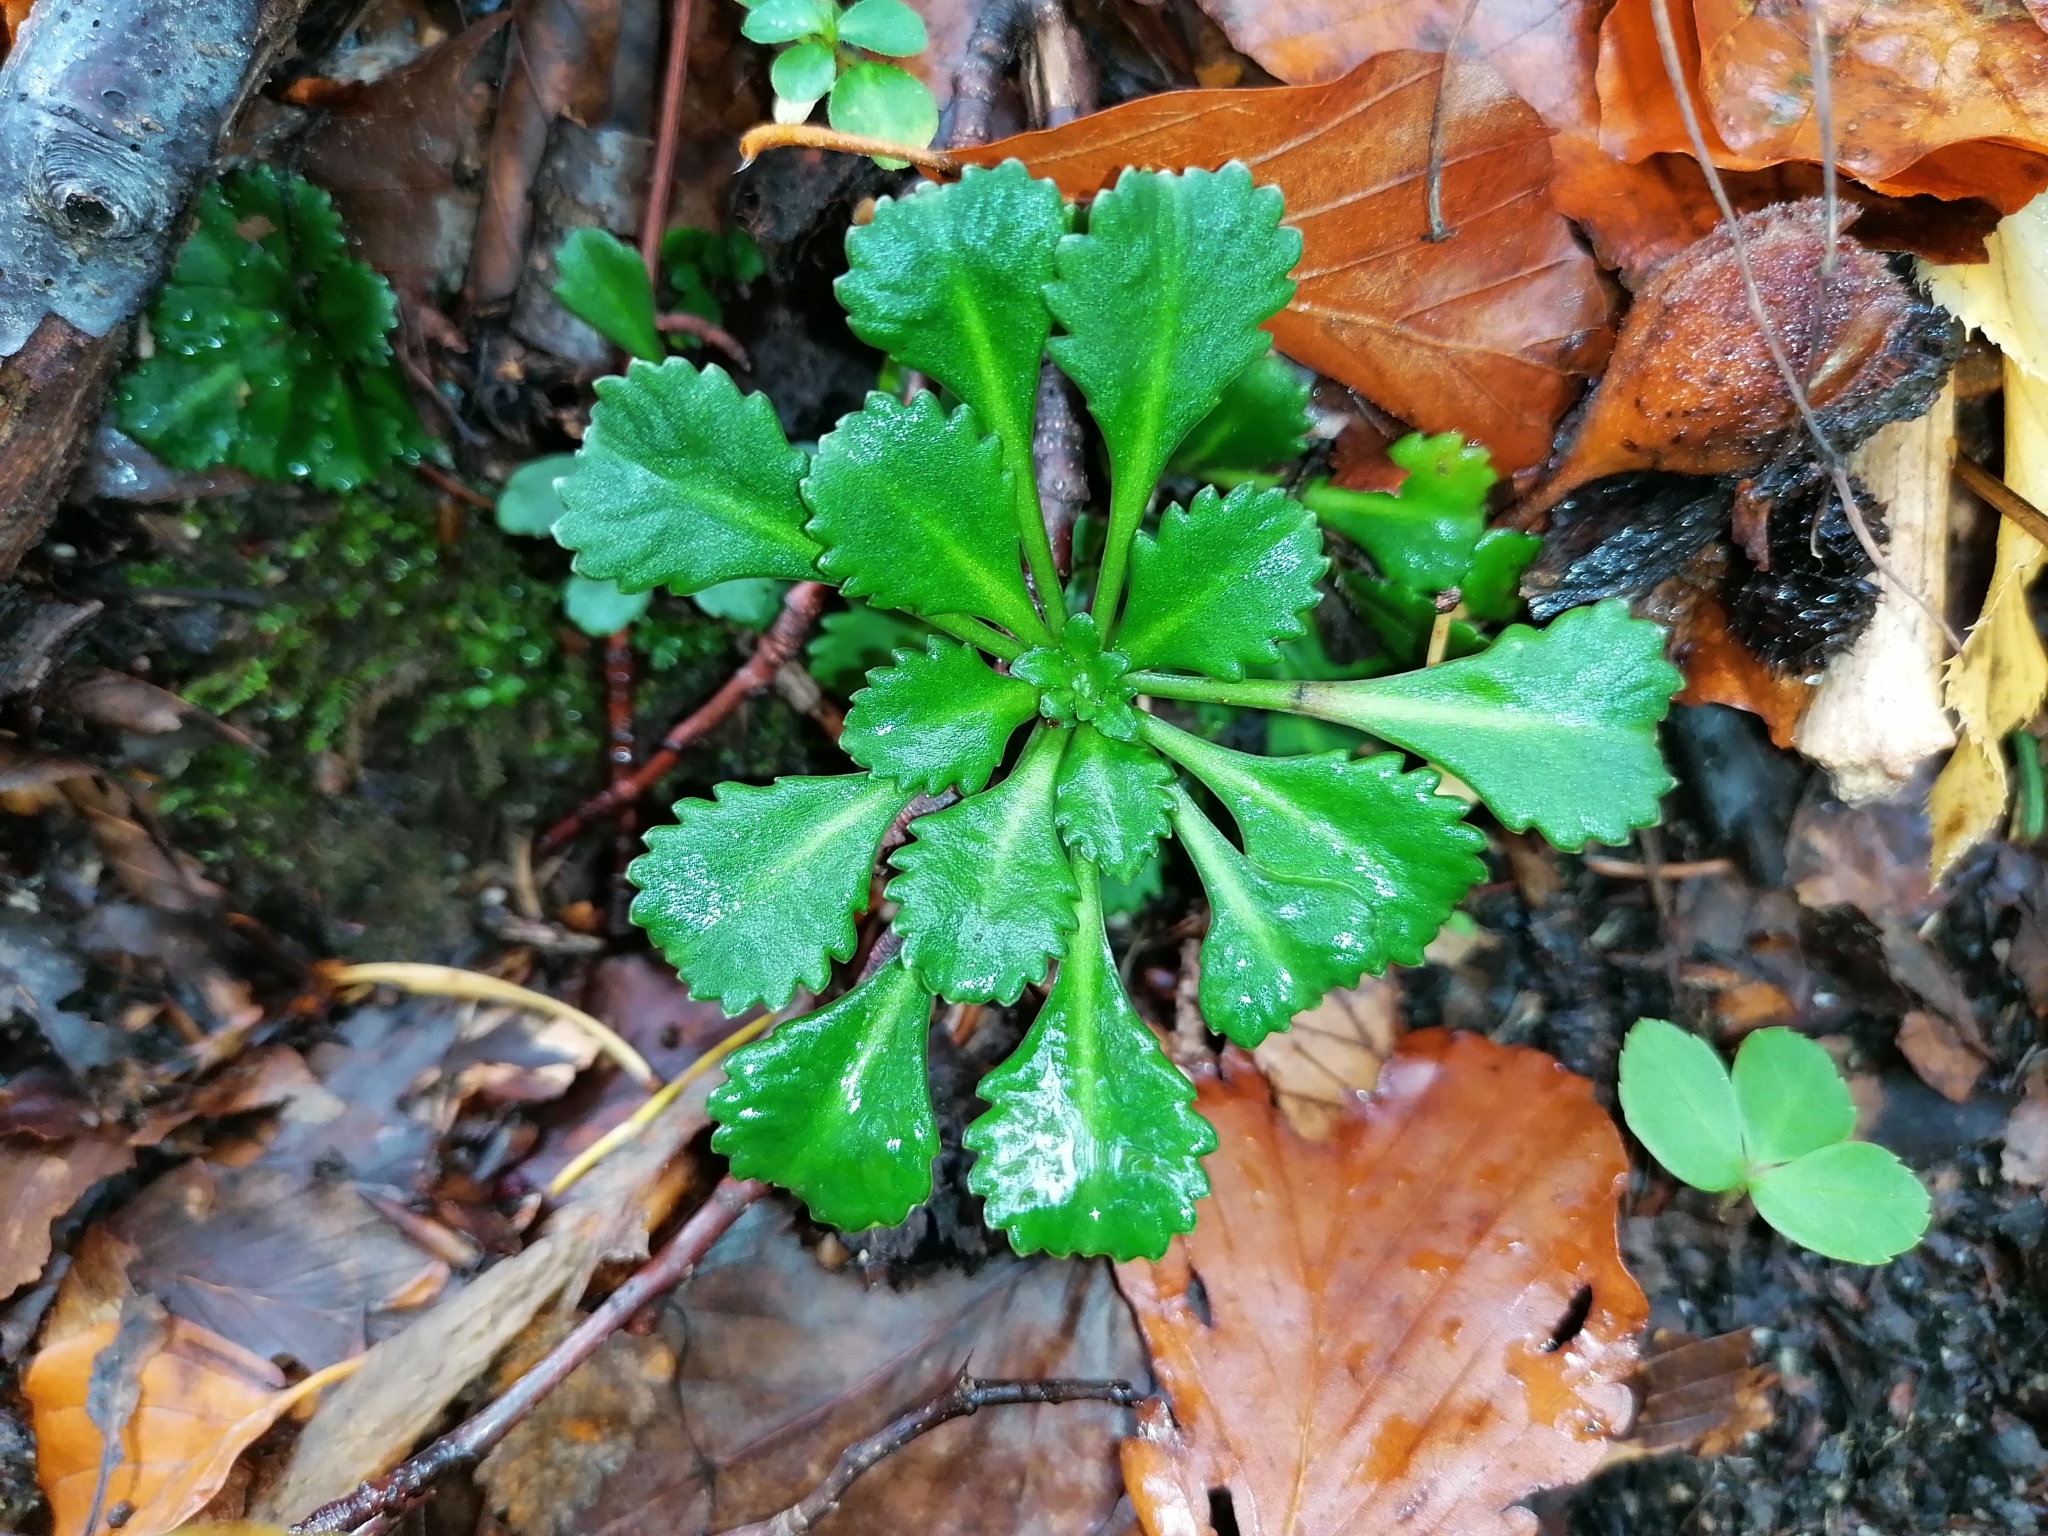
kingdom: Plantae
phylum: Tracheophyta
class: Magnoliopsida
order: Saxifragales
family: Saxifragaceae
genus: Saxifraga
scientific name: Saxifraga cuneifolia
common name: Lesser londonpride
